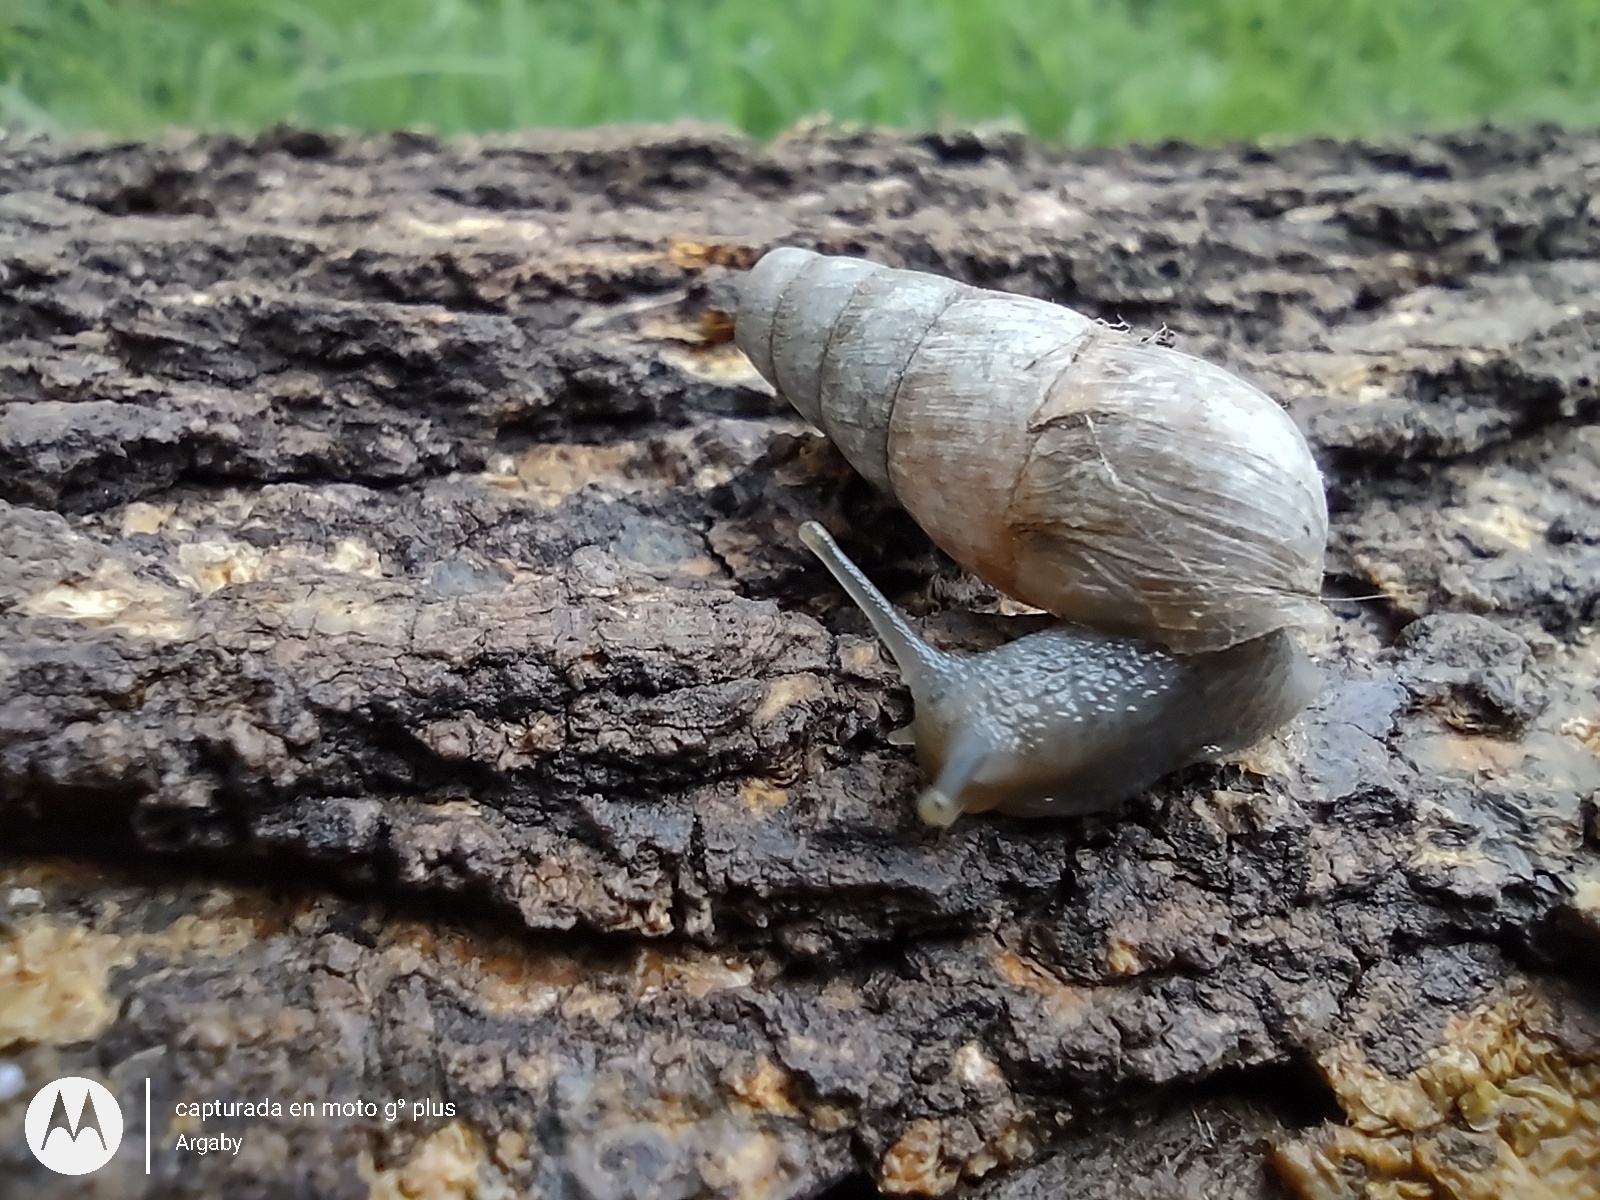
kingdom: Animalia
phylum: Mollusca
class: Gastropoda
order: Stylommatophora
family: Achatinidae
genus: Rumina
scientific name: Rumina decollata
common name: Decollate snail
